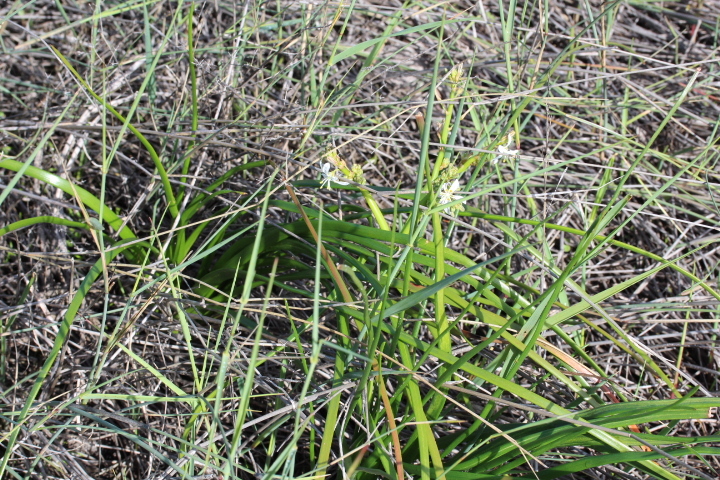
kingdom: Plantae
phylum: Tracheophyta
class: Liliopsida
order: Asparagales
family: Asphodelaceae
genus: Trachyandra
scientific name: Trachyandra divaricata
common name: Dune onionweed
